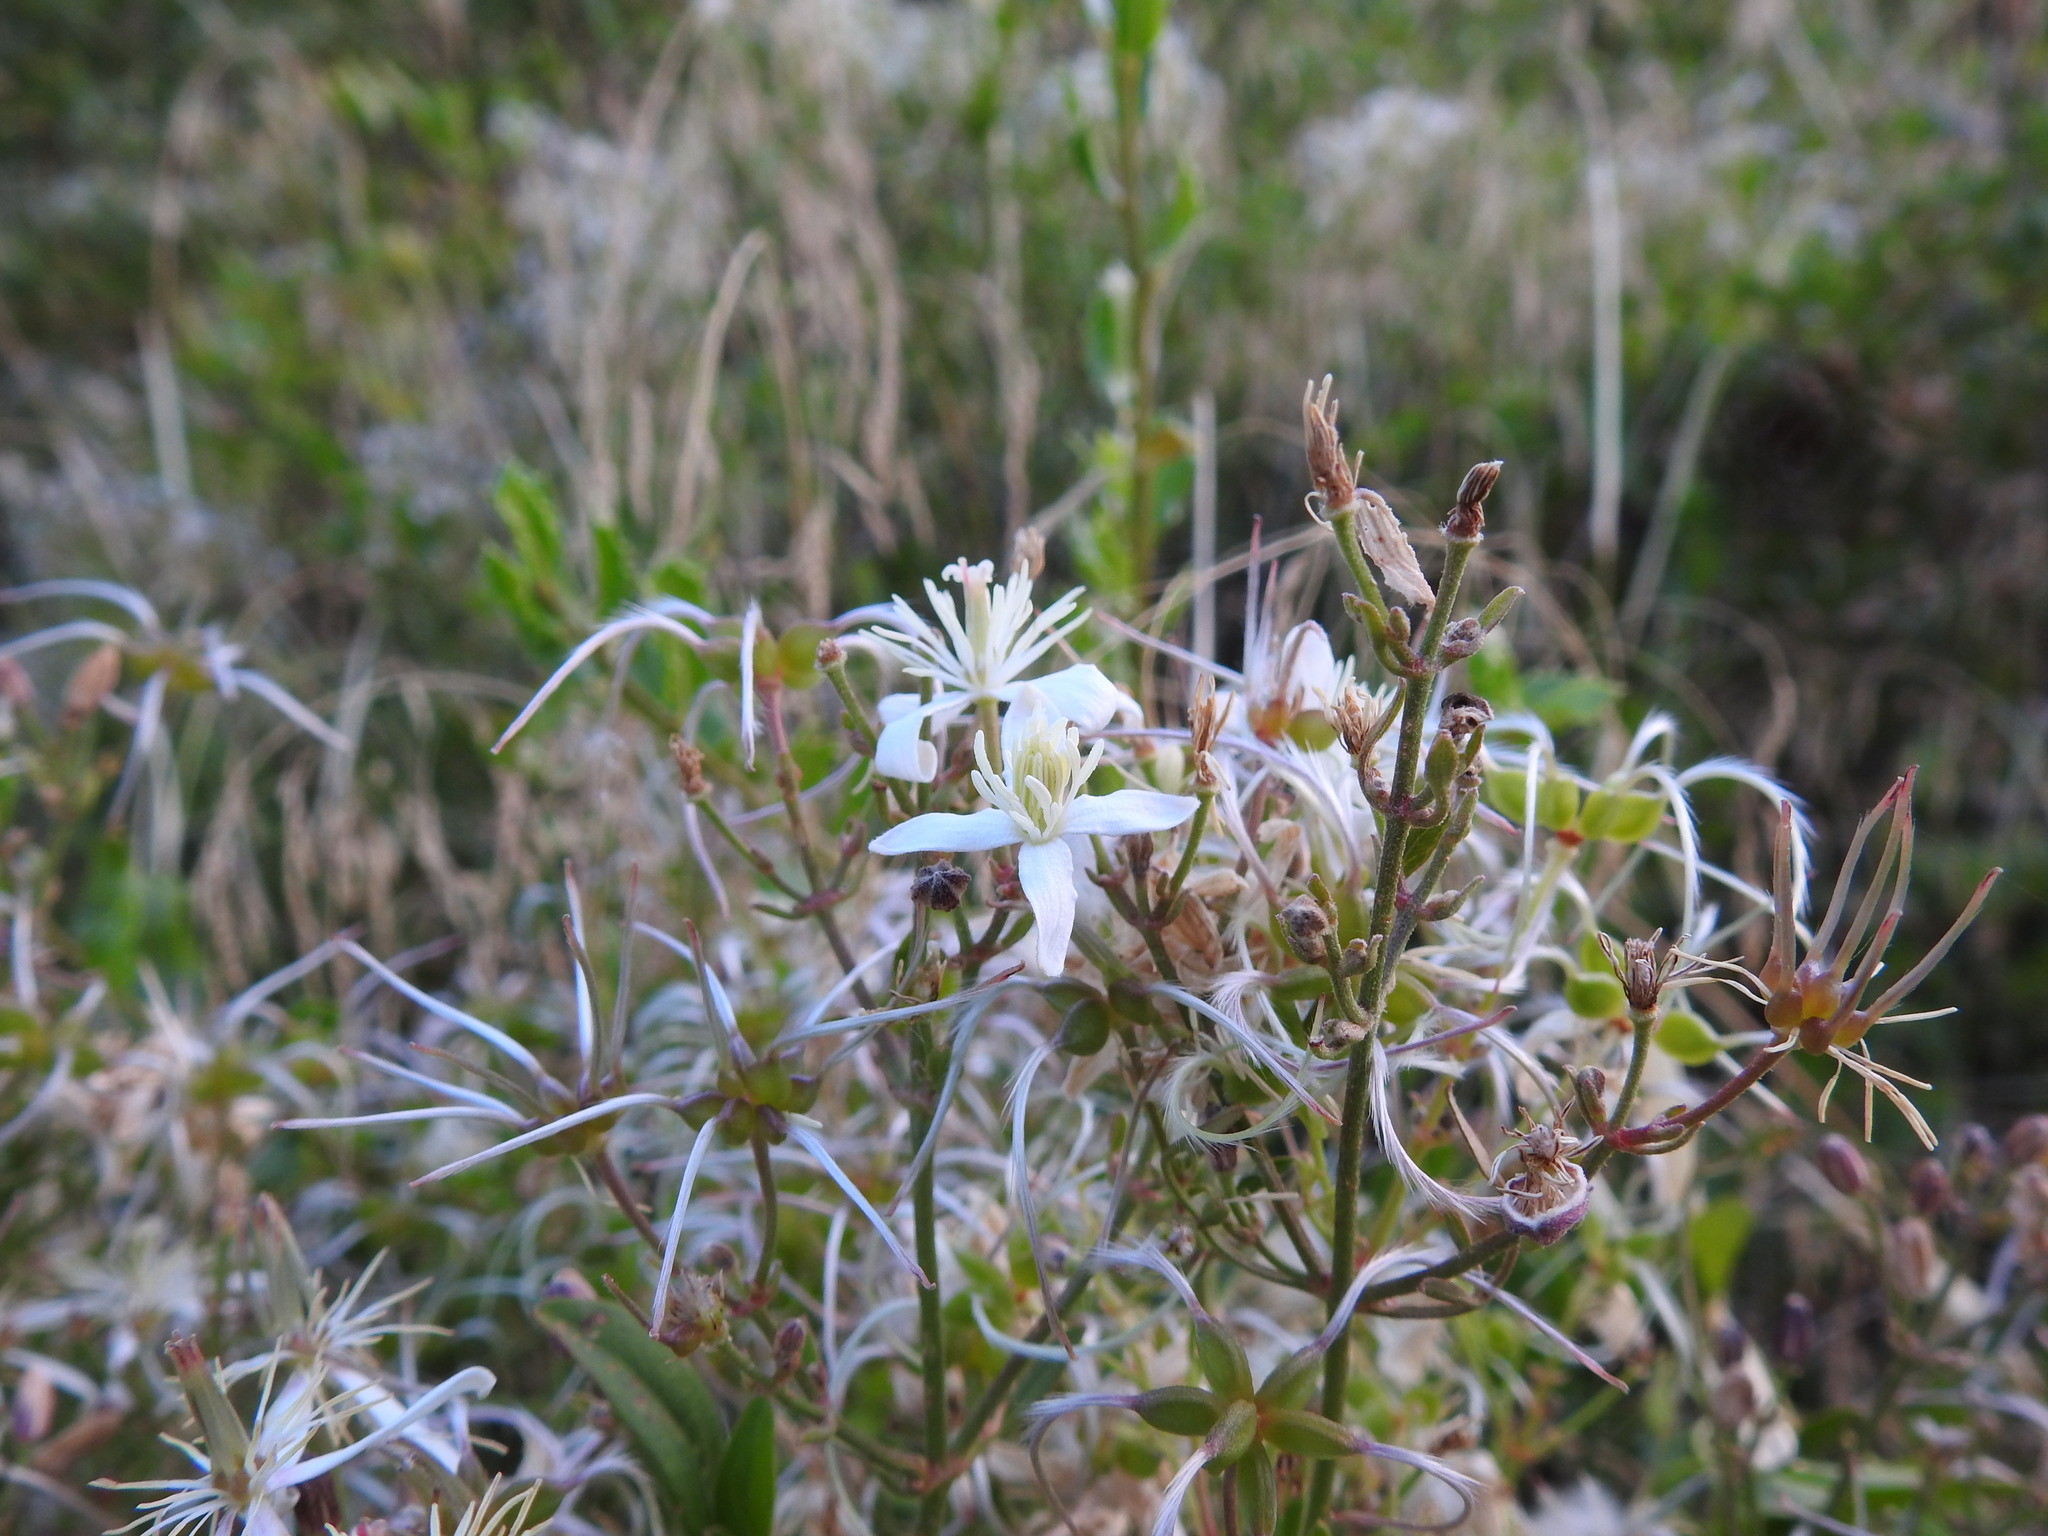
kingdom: Plantae
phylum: Tracheophyta
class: Magnoliopsida
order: Ranunculales
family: Ranunculaceae
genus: Clematis
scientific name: Clematis flammula
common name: Virgin's-bower
